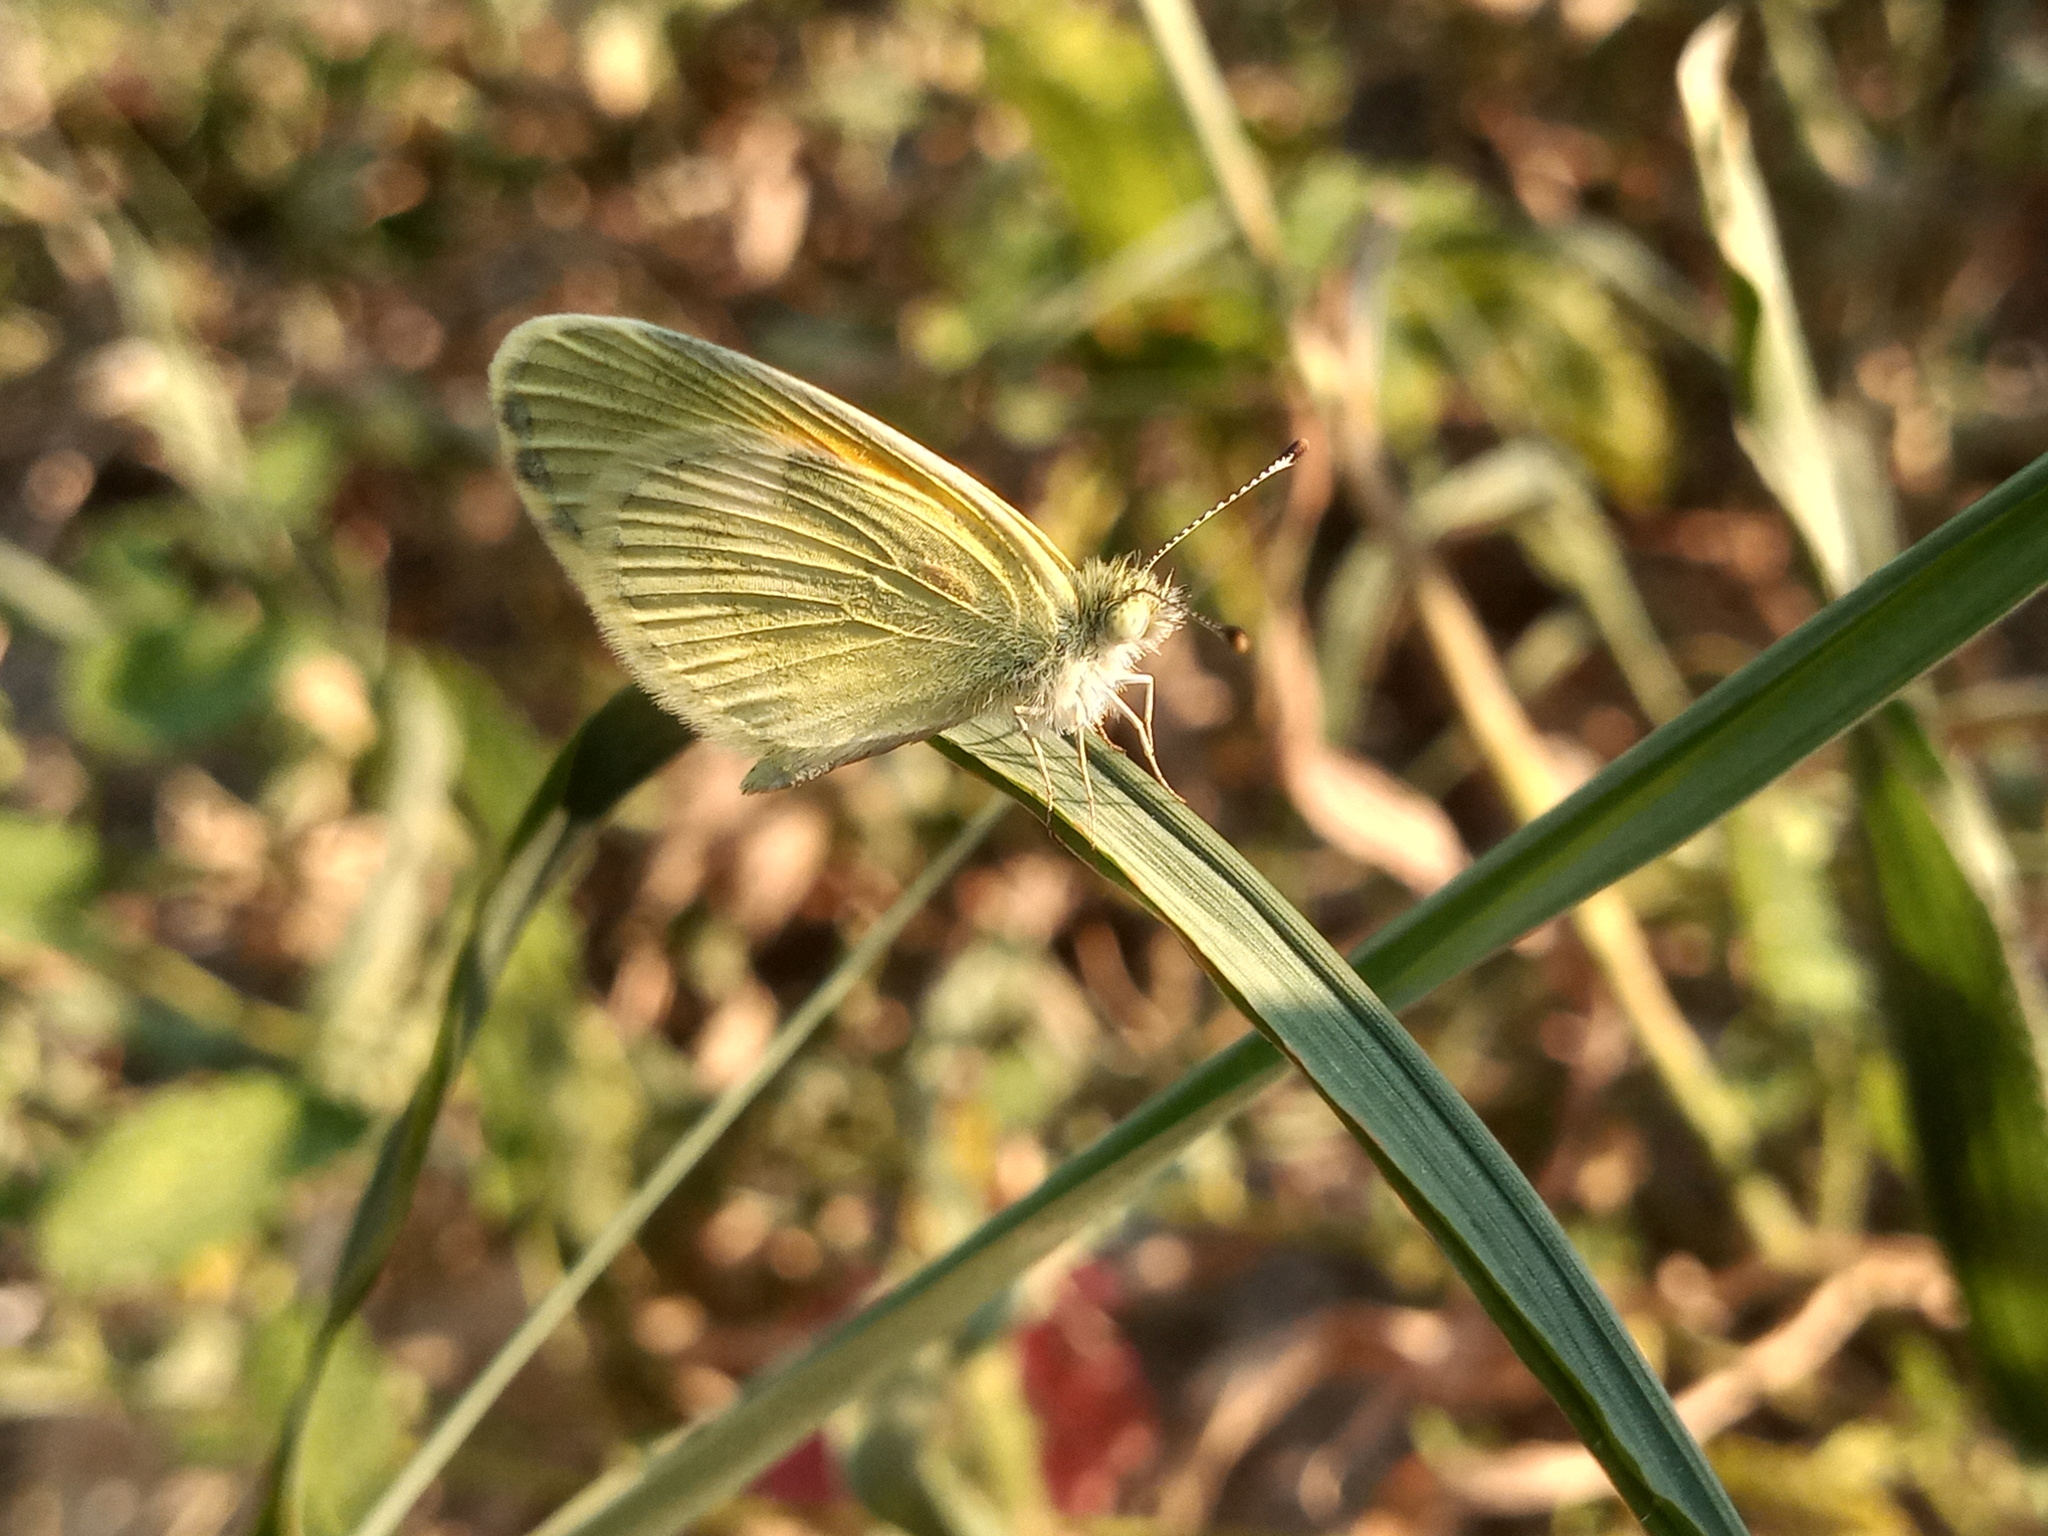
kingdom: Animalia
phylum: Arthropoda
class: Insecta
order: Lepidoptera
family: Pieridae
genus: Nathalis
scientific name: Nathalis iole
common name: Dainty sulphur
